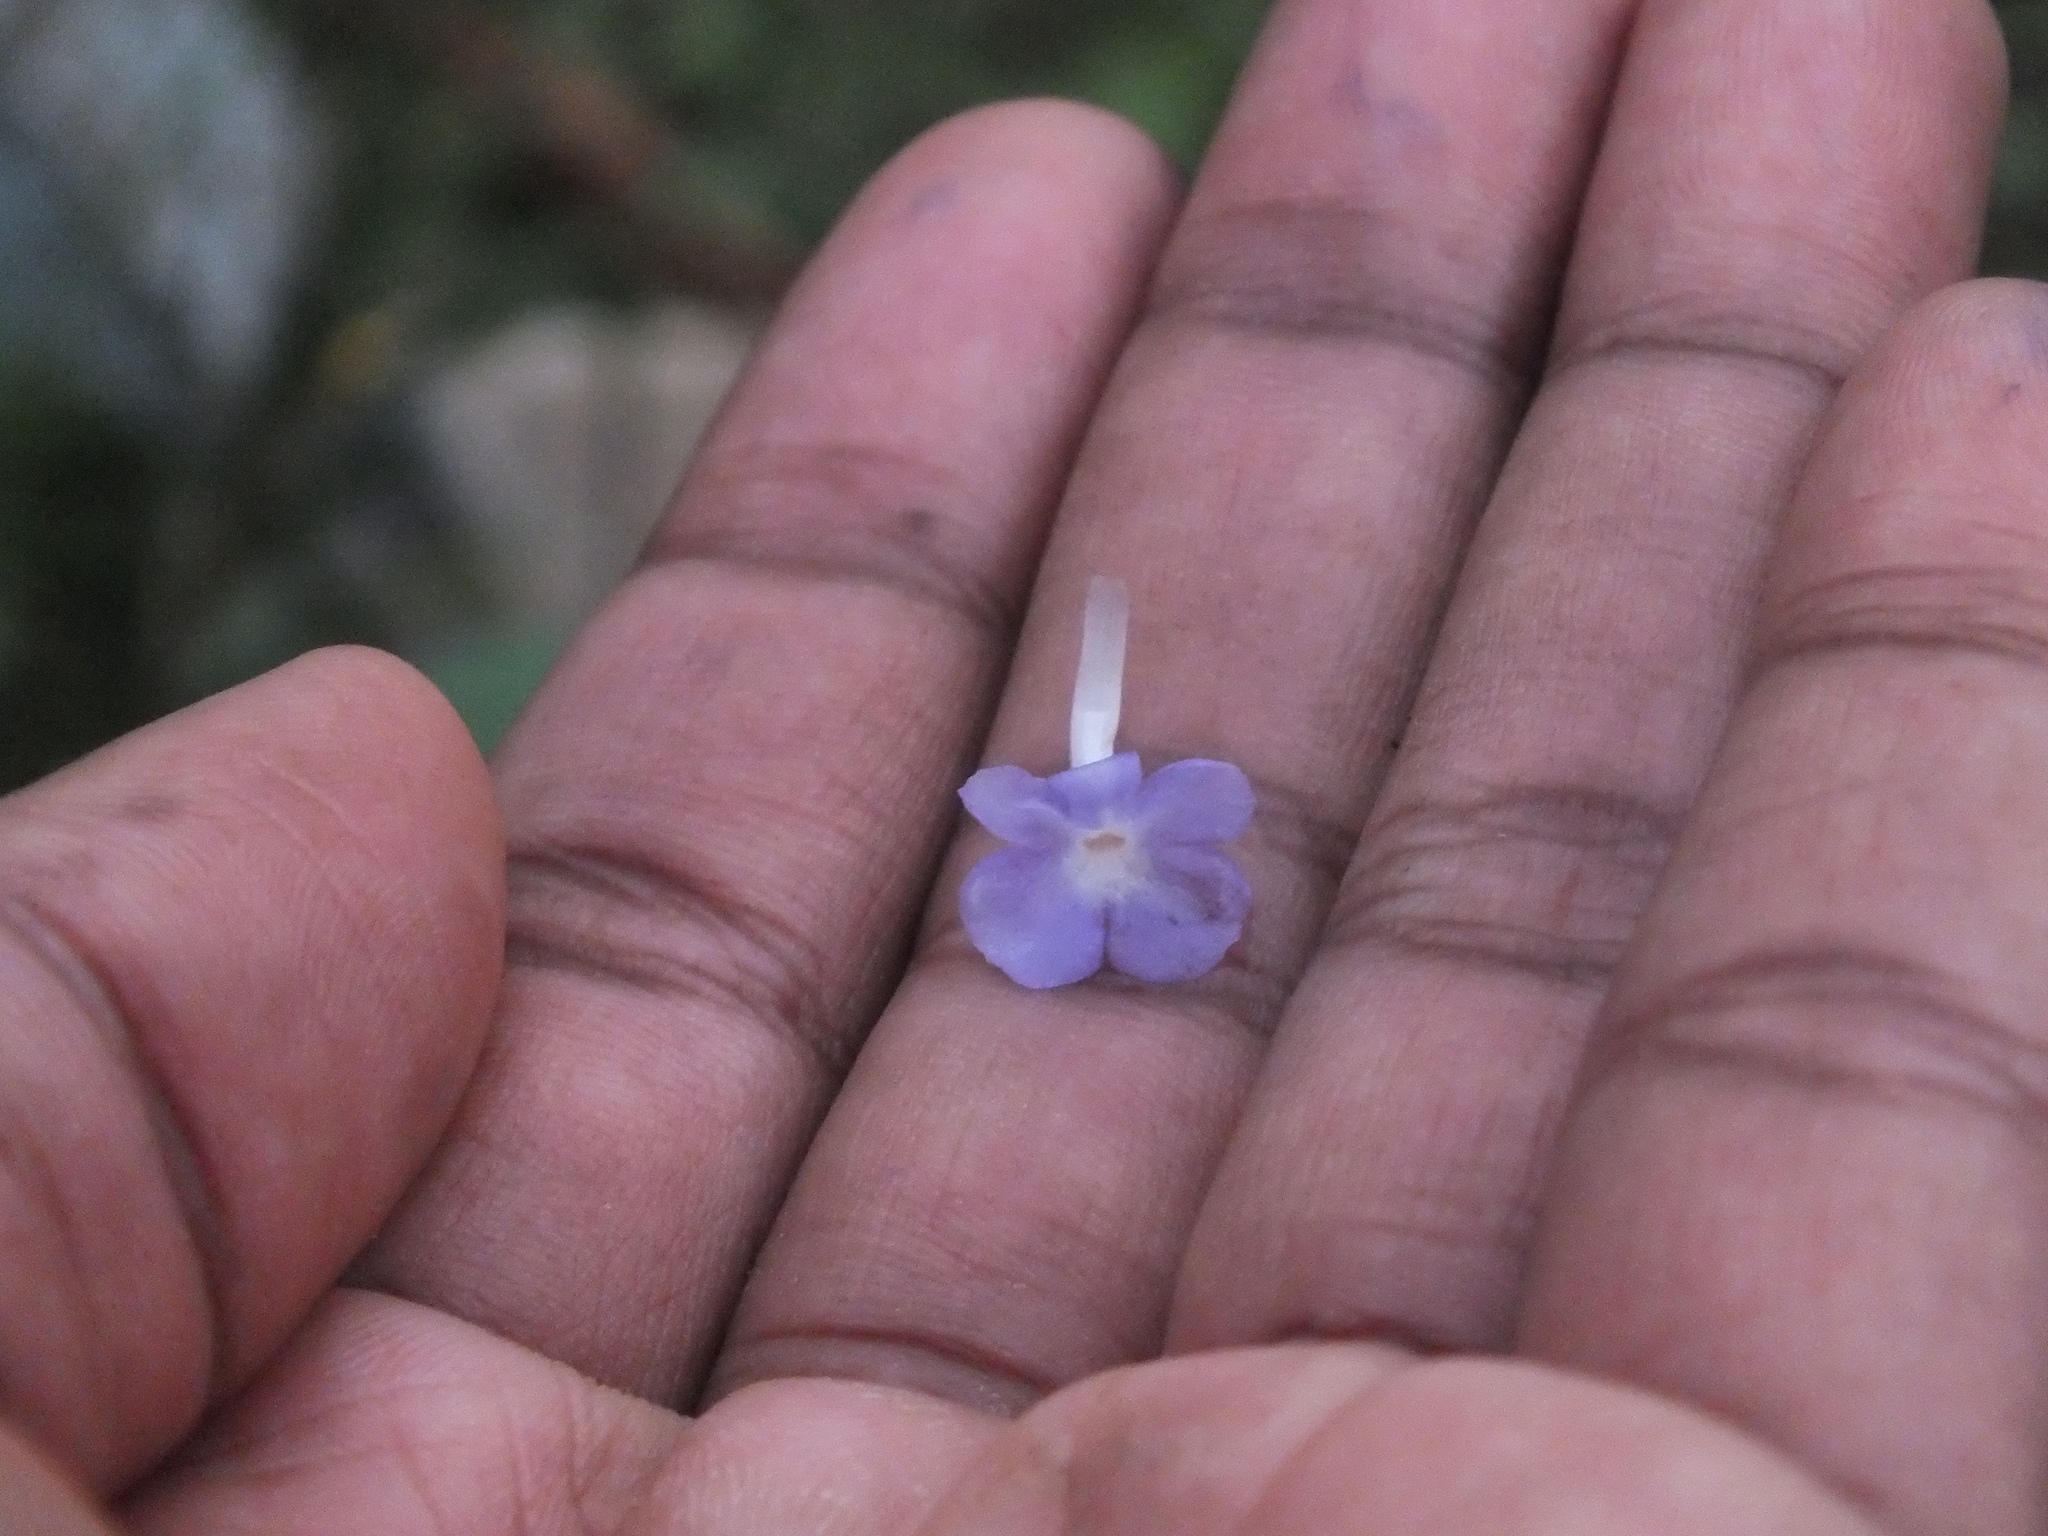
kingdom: Plantae
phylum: Tracheophyta
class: Magnoliopsida
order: Lamiales
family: Verbenaceae
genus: Stachytarpheta
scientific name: Stachytarpheta jamaicensis
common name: Light-blue snakeweed
